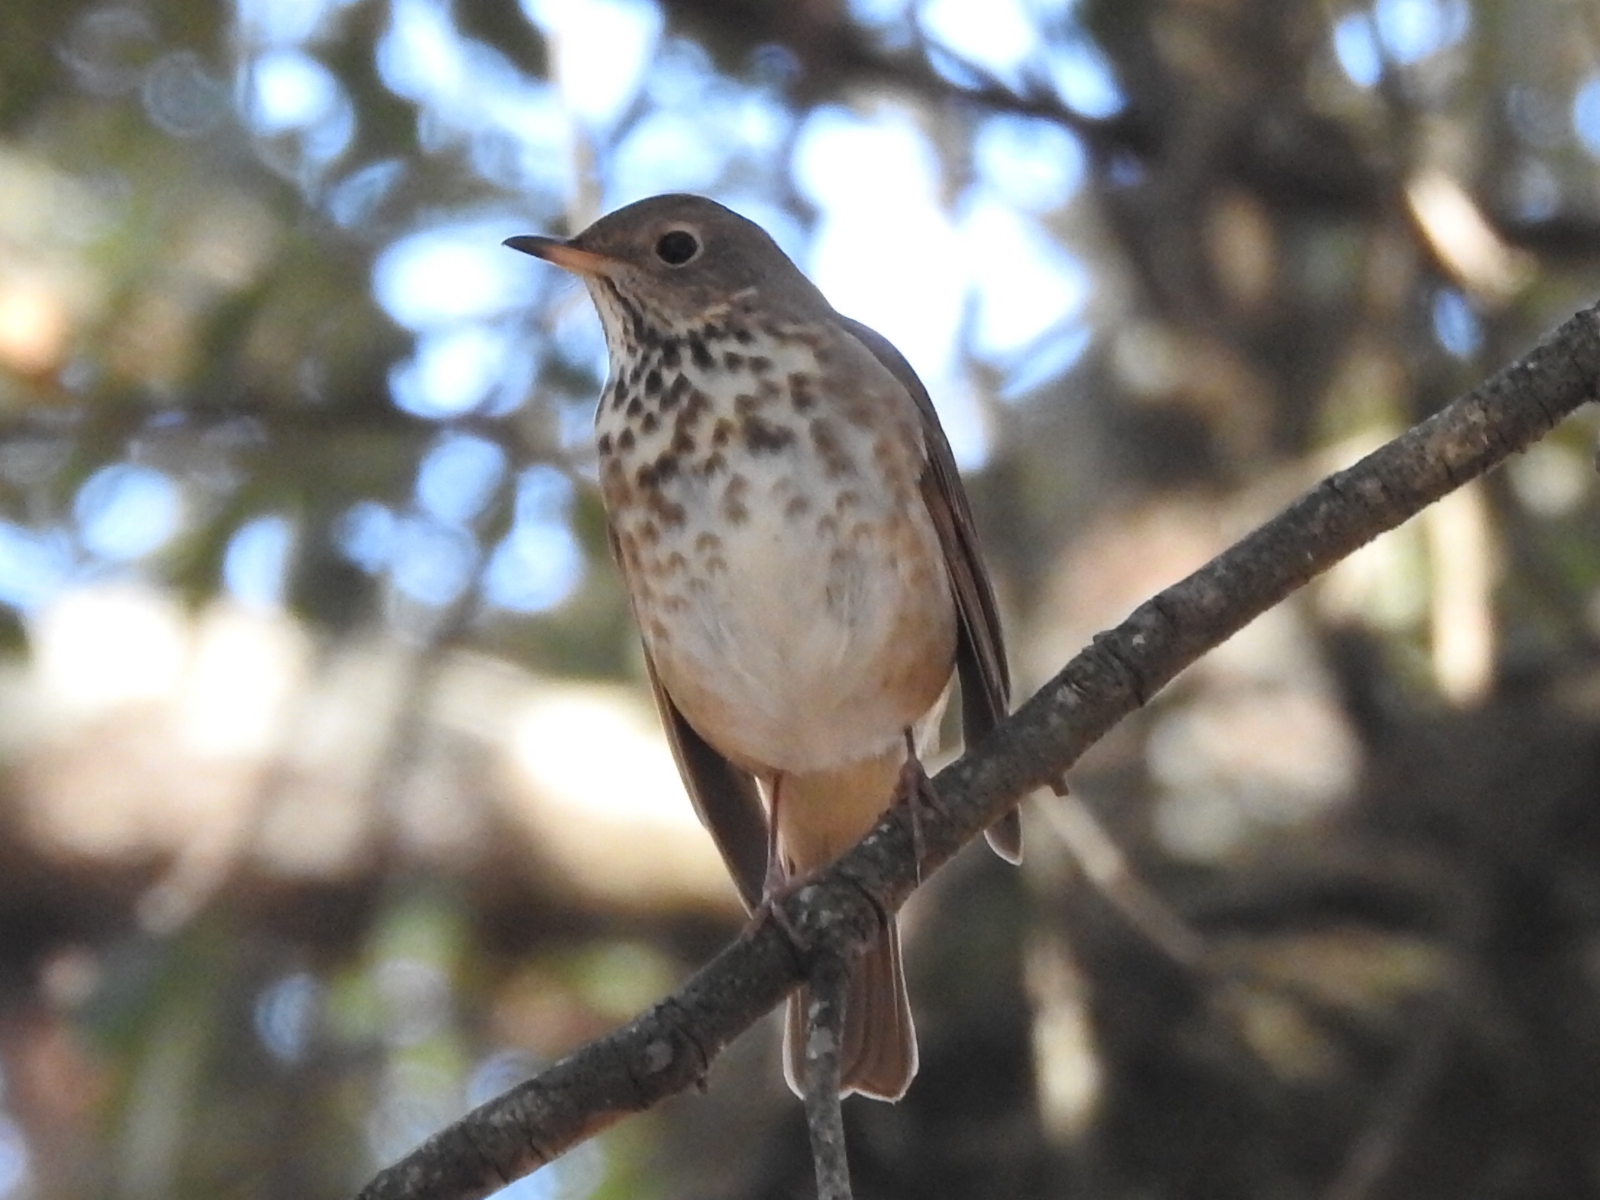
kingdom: Animalia
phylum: Chordata
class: Aves
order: Passeriformes
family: Turdidae
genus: Catharus
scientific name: Catharus guttatus
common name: Hermit thrush
